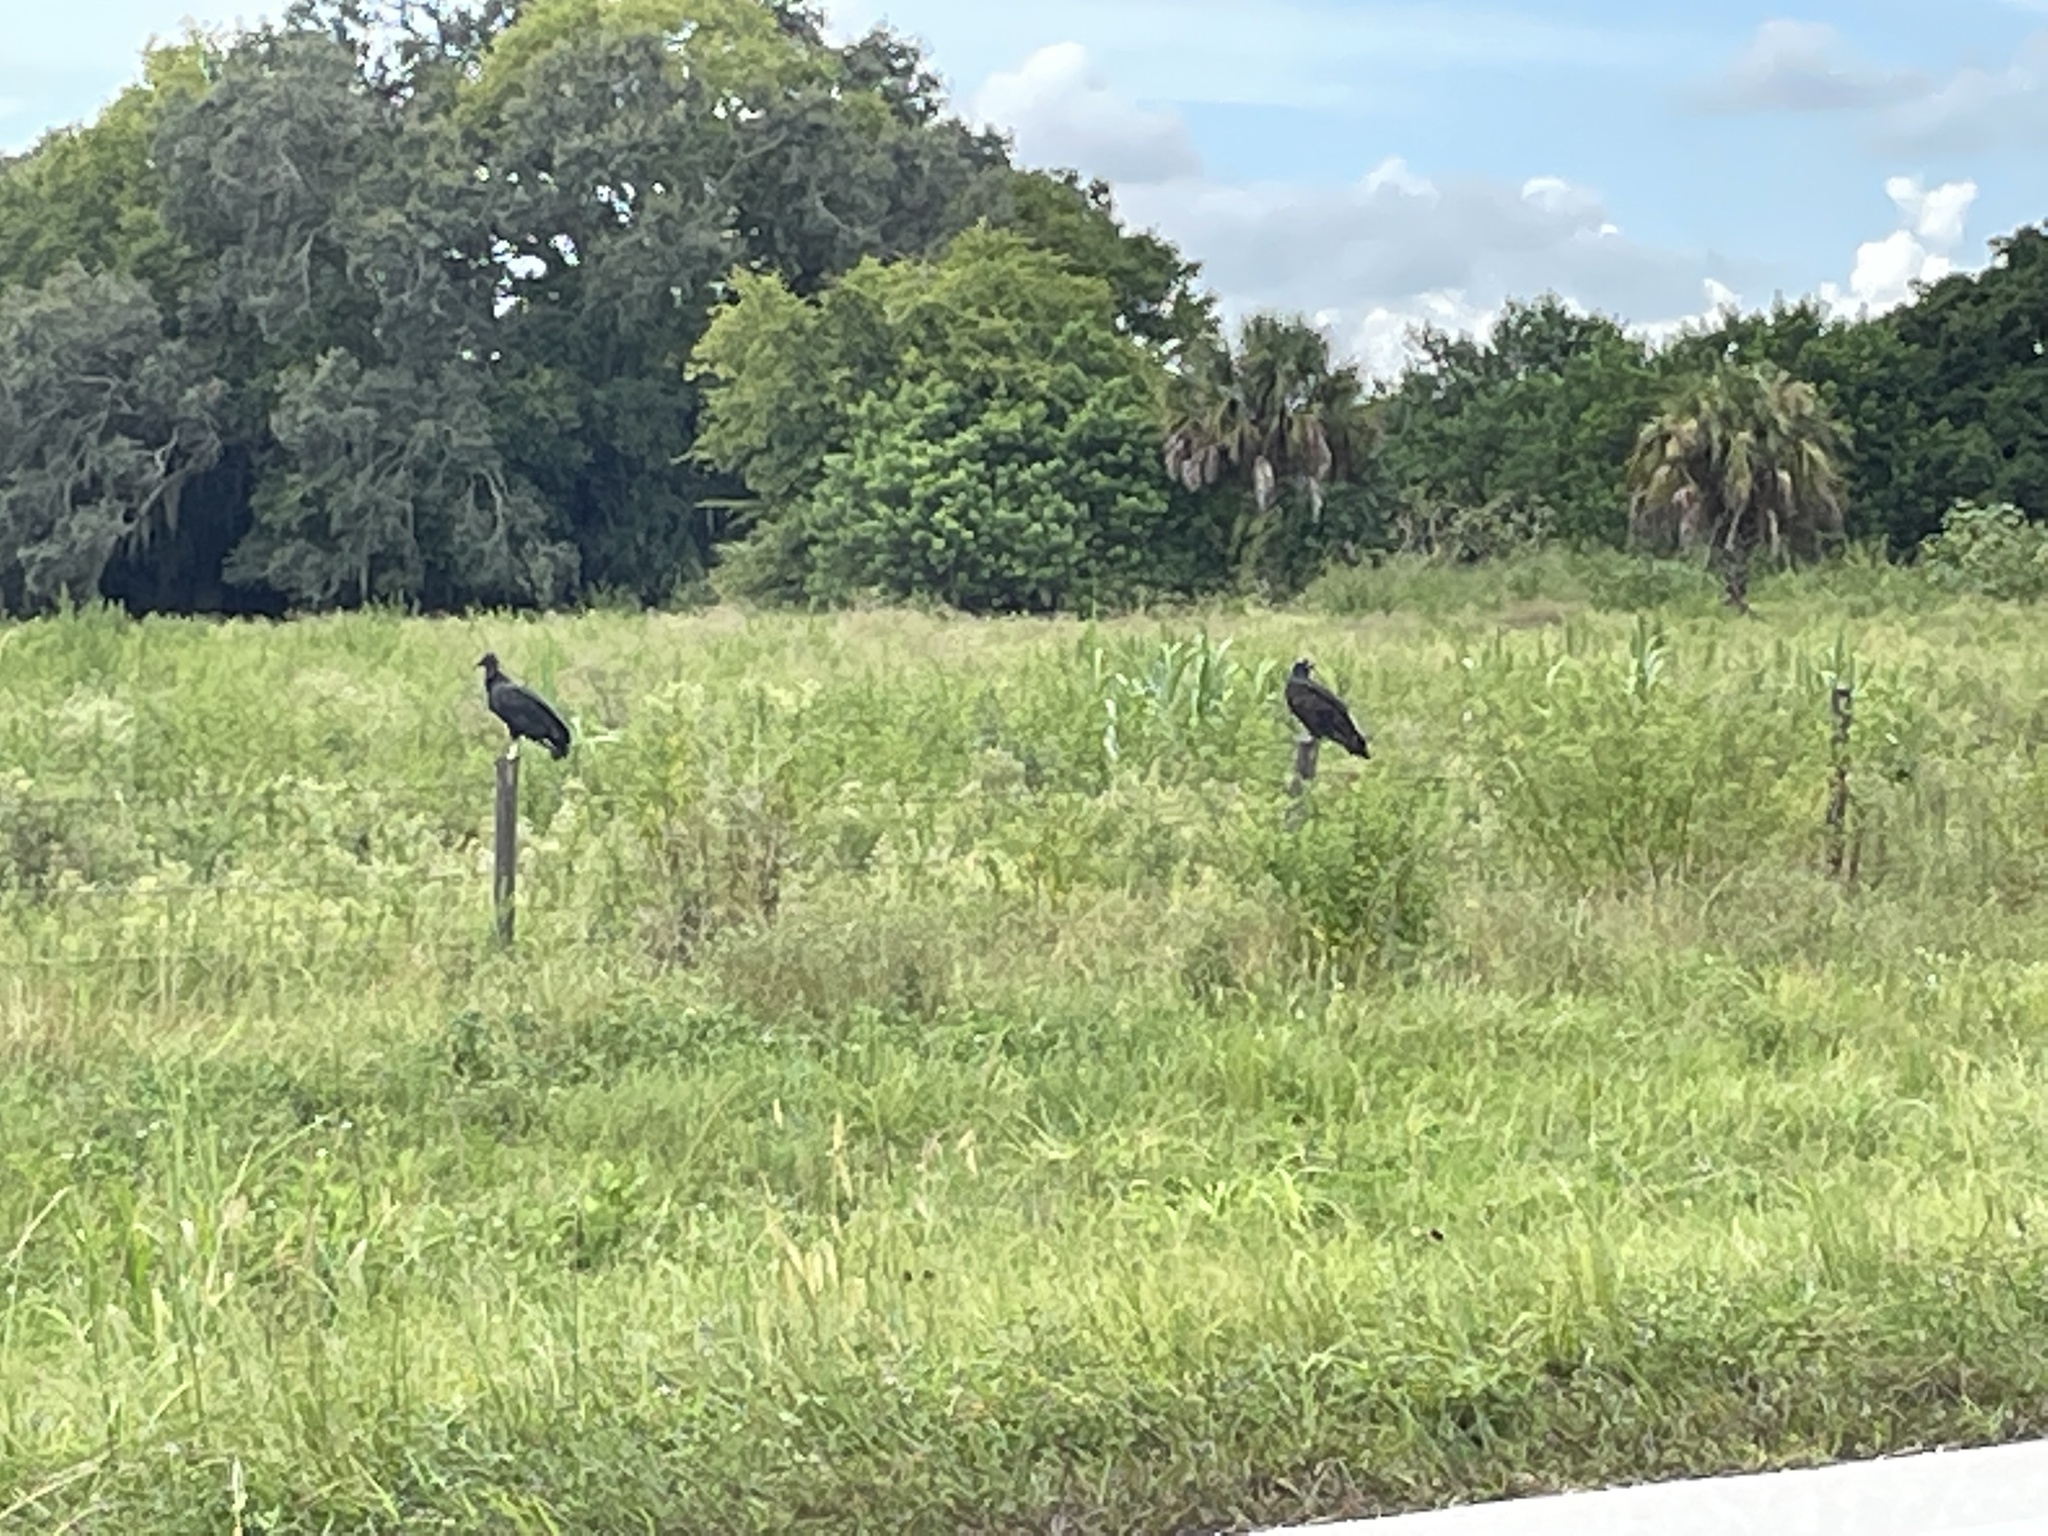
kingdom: Animalia
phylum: Chordata
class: Aves
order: Accipitriformes
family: Cathartidae
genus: Cathartes
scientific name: Cathartes aura
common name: Turkey vulture
